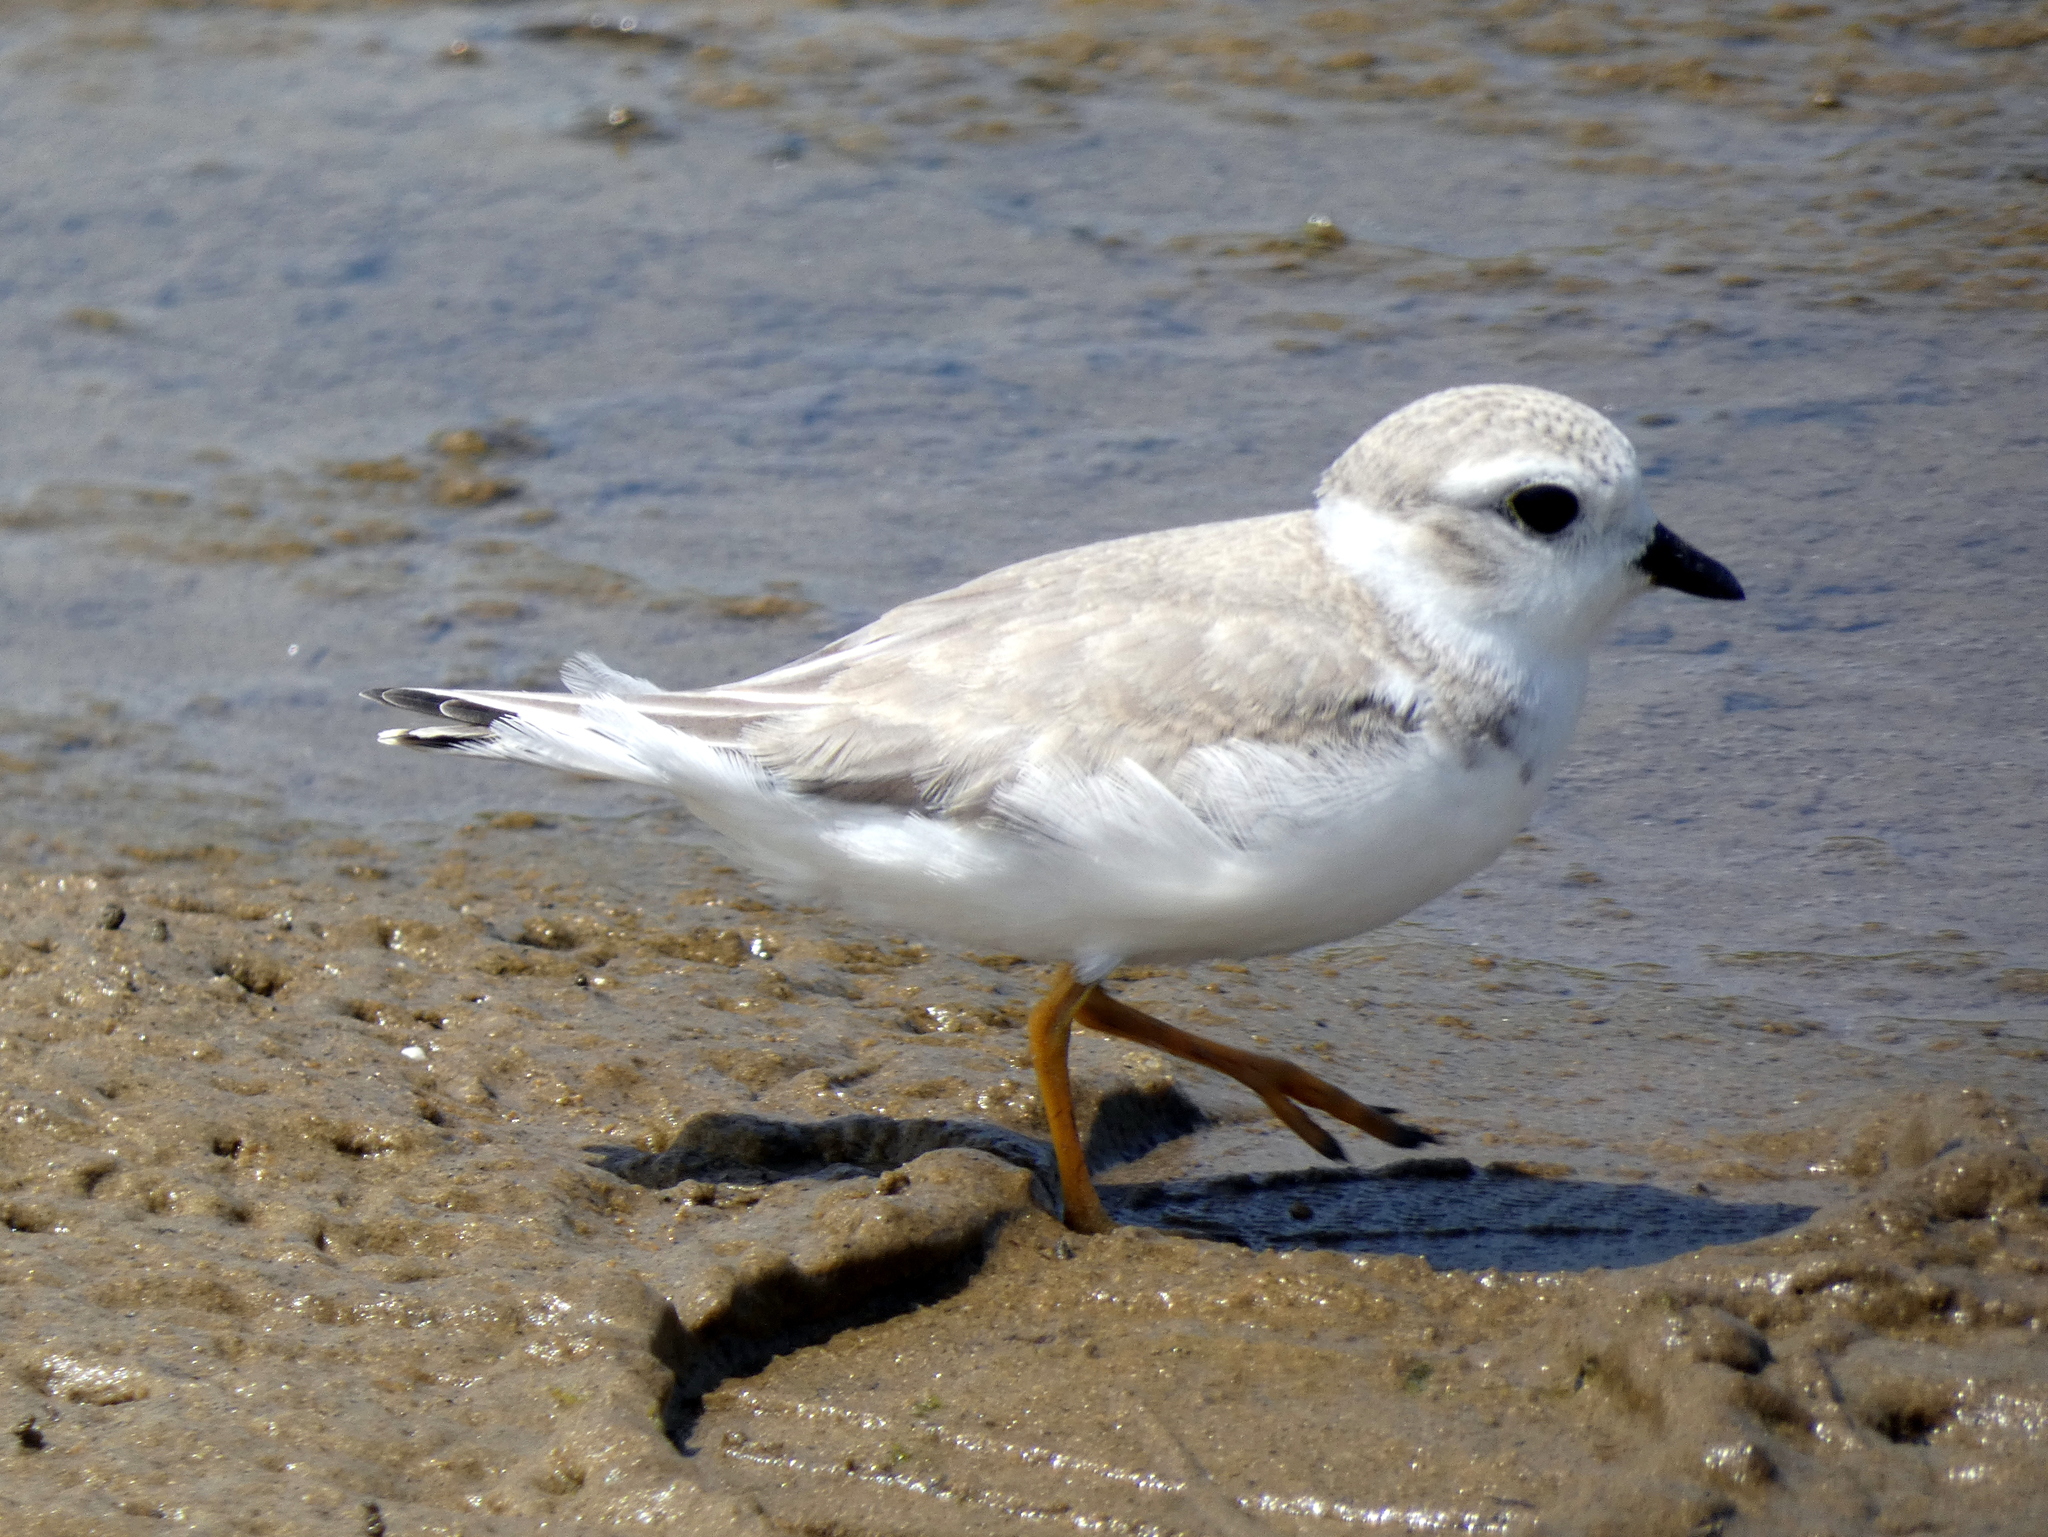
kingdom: Animalia
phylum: Chordata
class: Aves
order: Charadriiformes
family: Charadriidae
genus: Charadrius
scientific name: Charadrius melodus
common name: Piping plover
